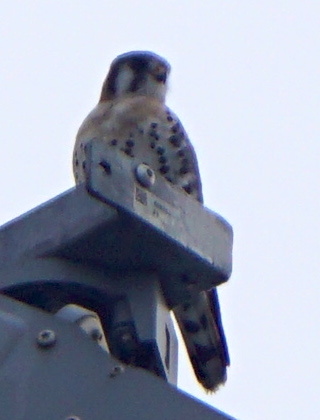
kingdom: Animalia
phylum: Chordata
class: Aves
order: Falconiformes
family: Falconidae
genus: Falco
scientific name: Falco sparverius
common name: American kestrel
